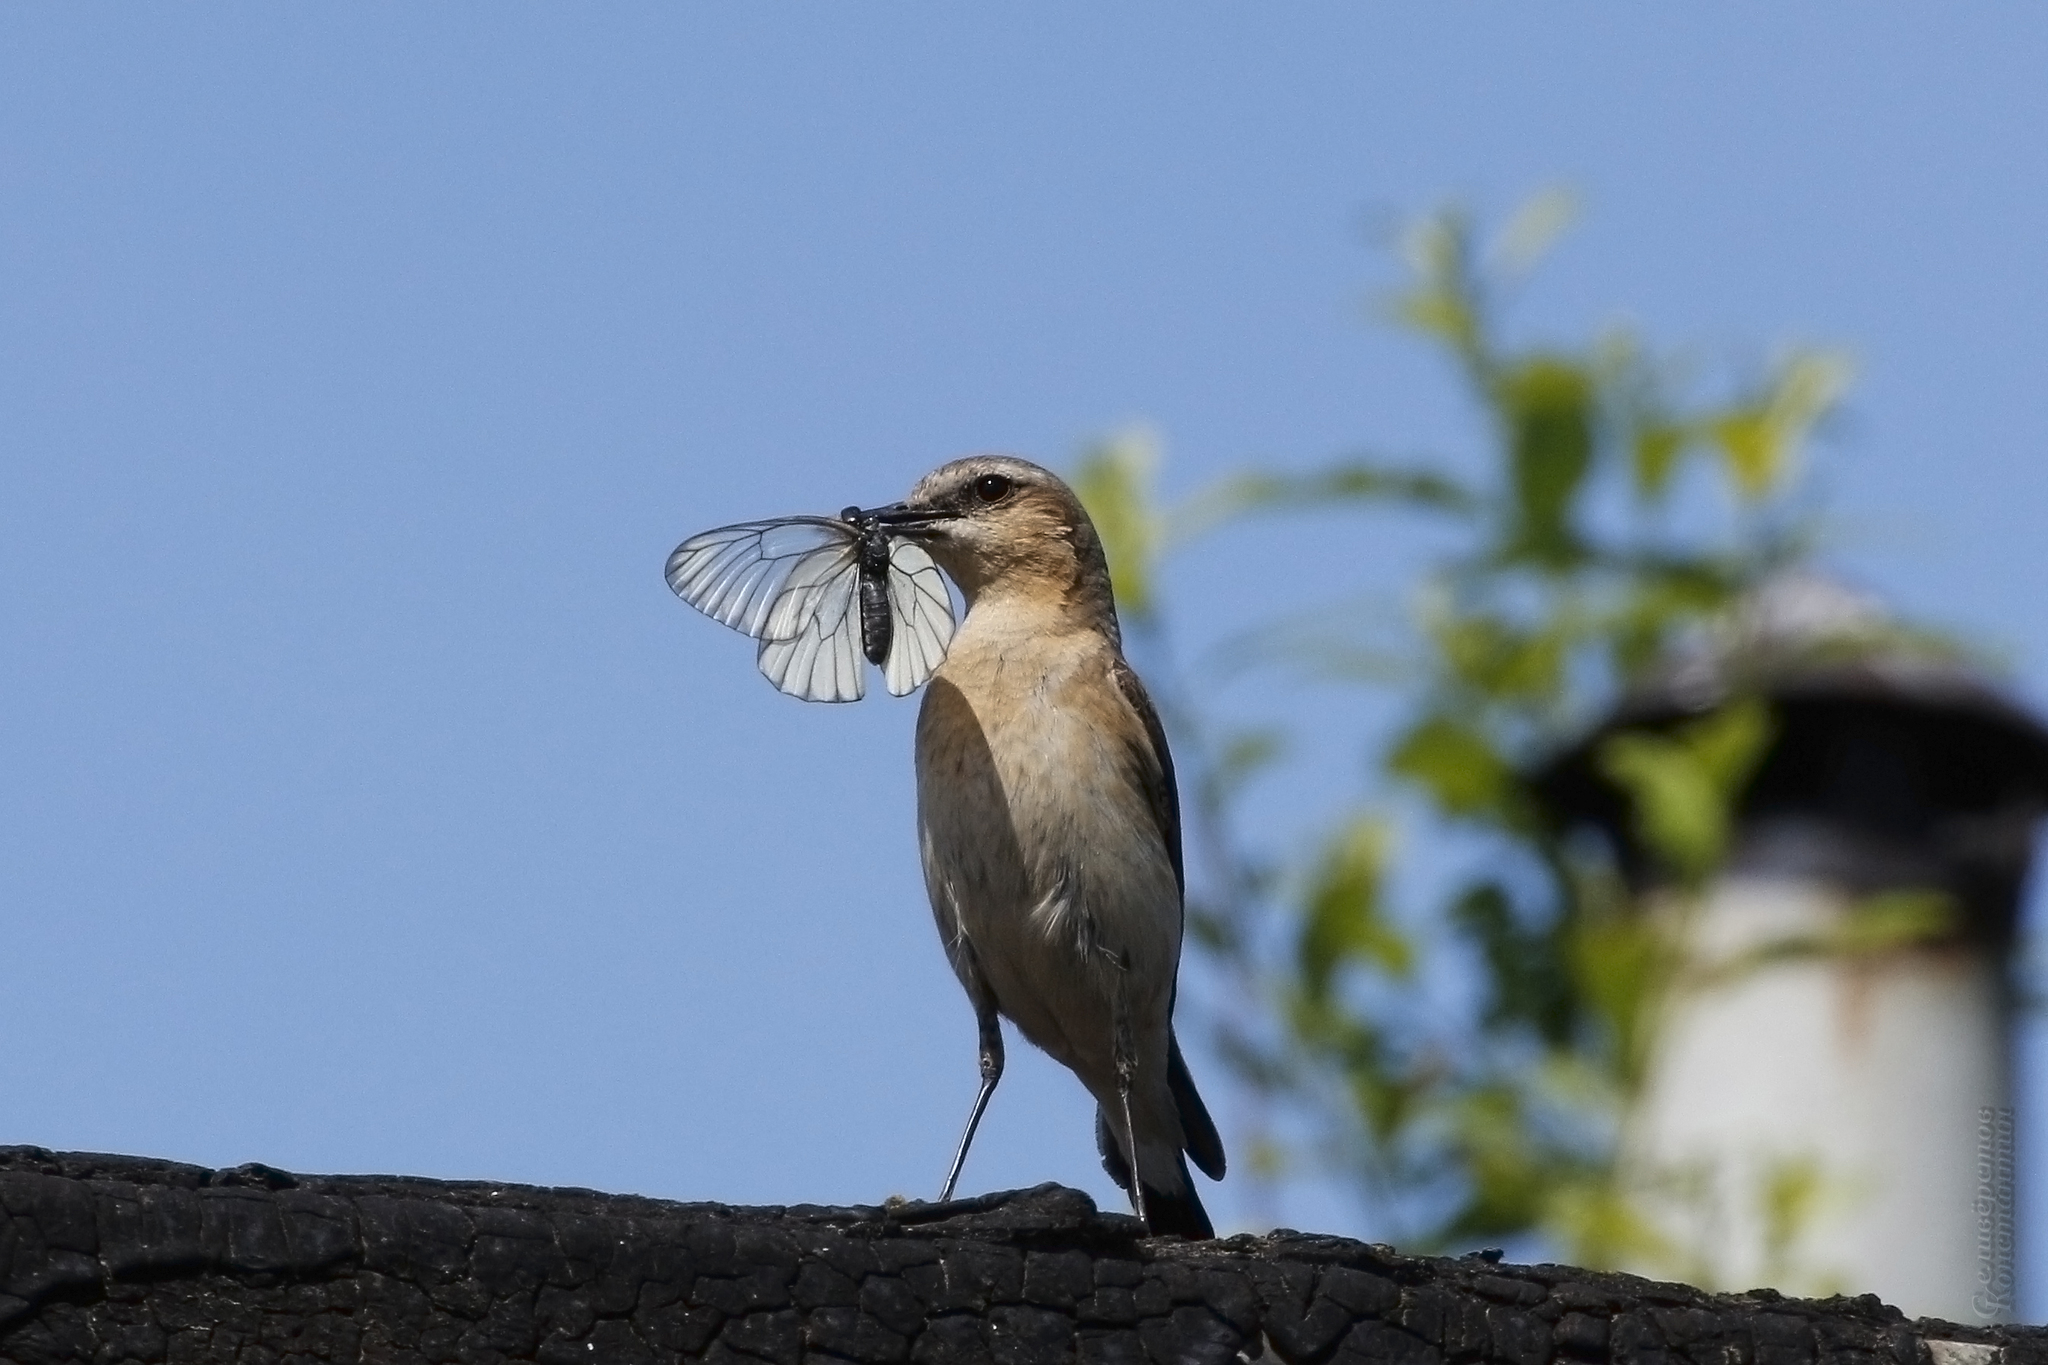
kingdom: Animalia
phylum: Chordata
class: Aves
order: Passeriformes
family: Muscicapidae
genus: Oenanthe
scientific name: Oenanthe oenanthe
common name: Northern wheatear
